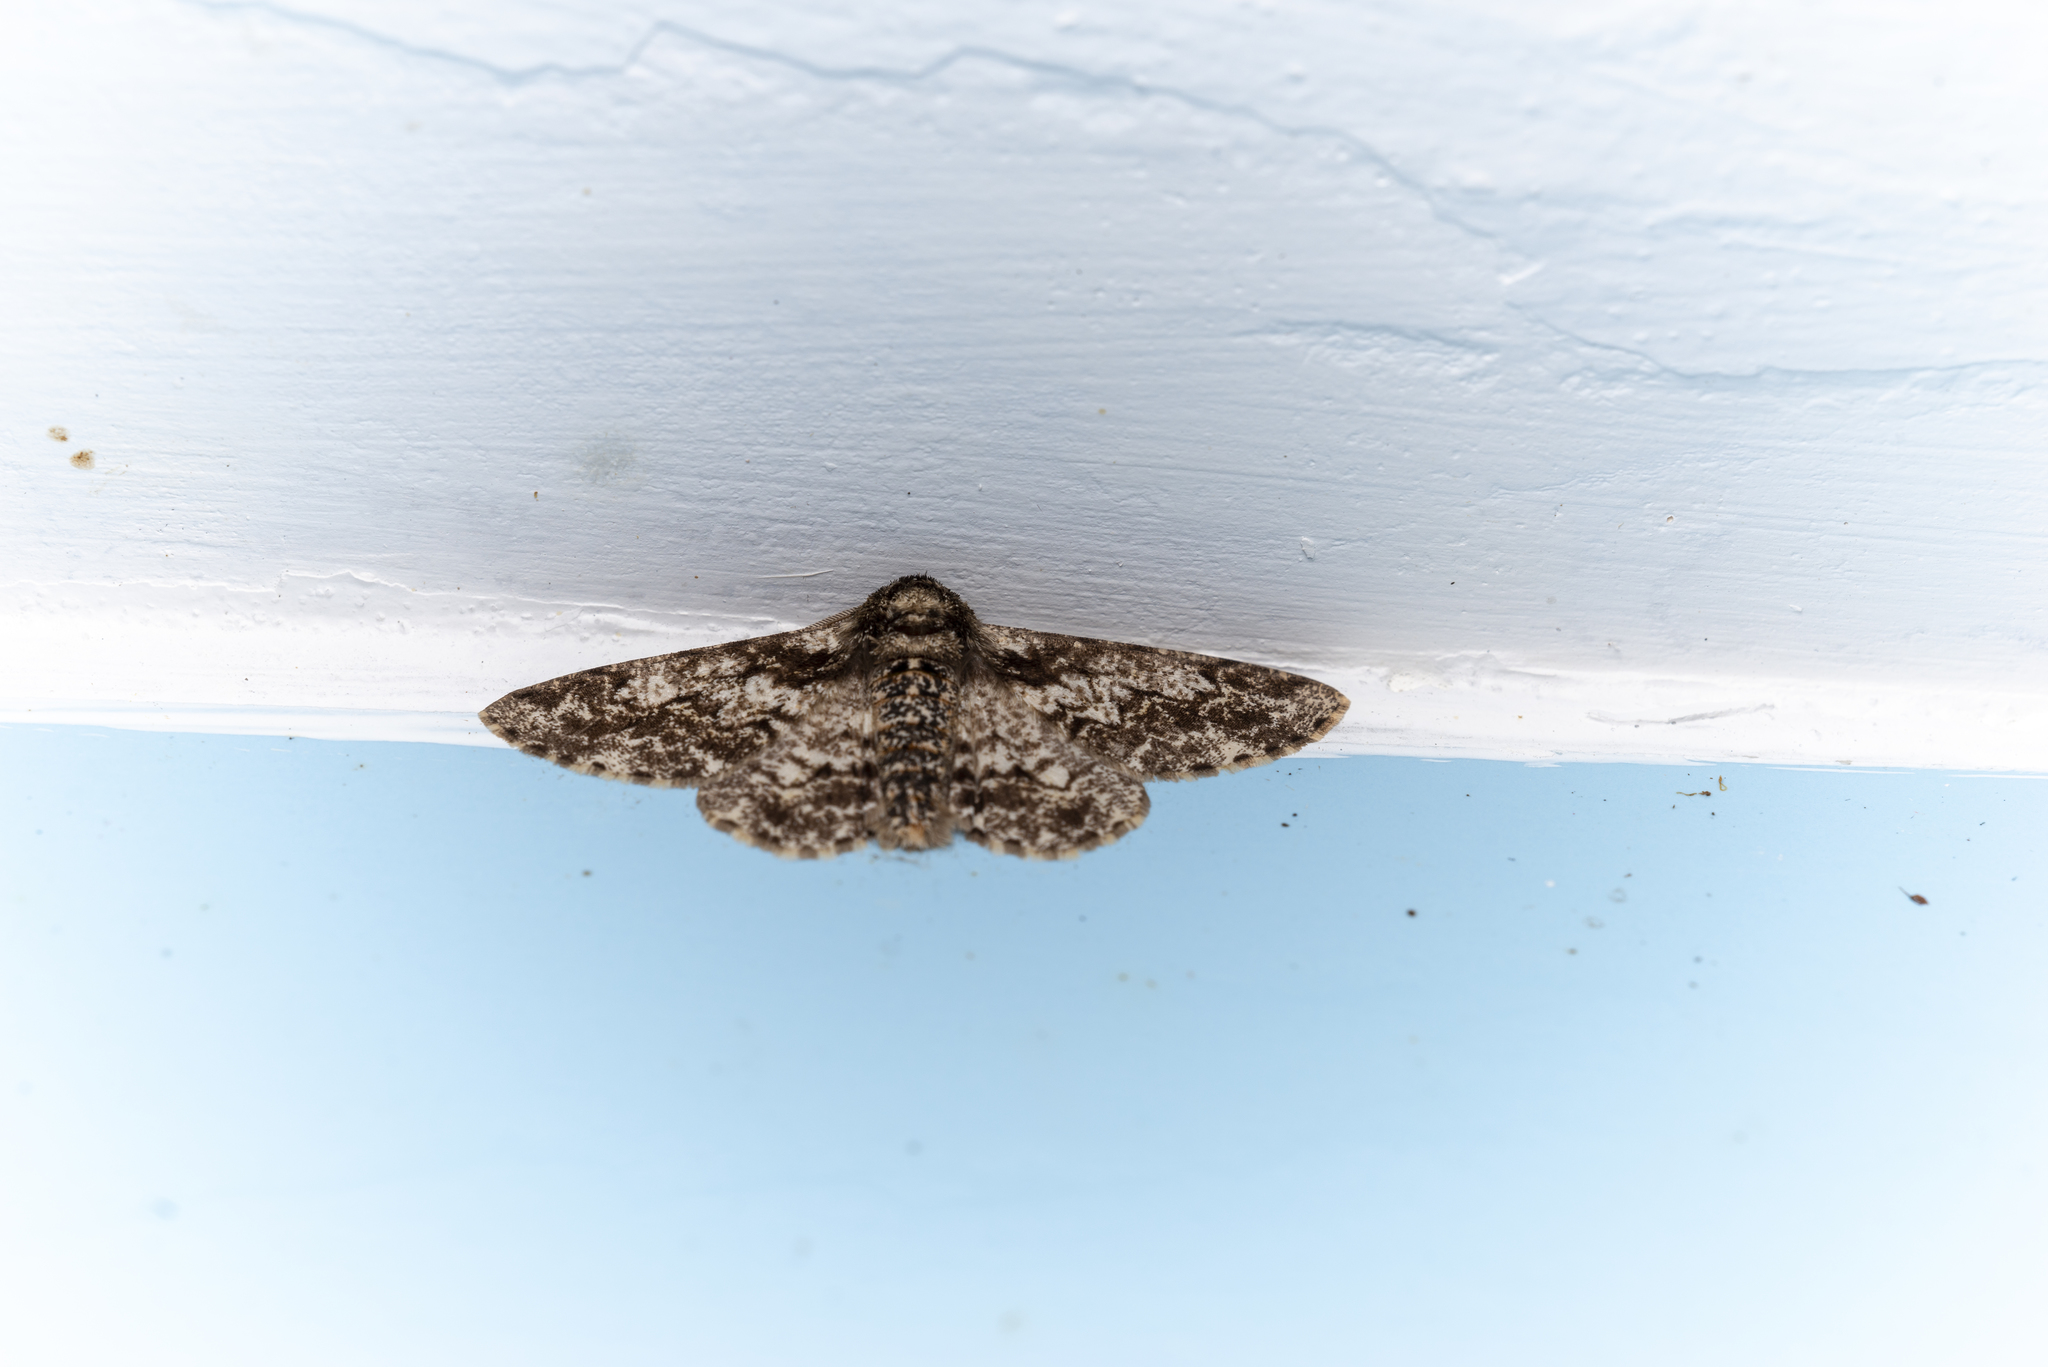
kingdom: Animalia
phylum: Arthropoda
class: Insecta
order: Lepidoptera
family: Geometridae
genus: Biston
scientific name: Biston marginata
